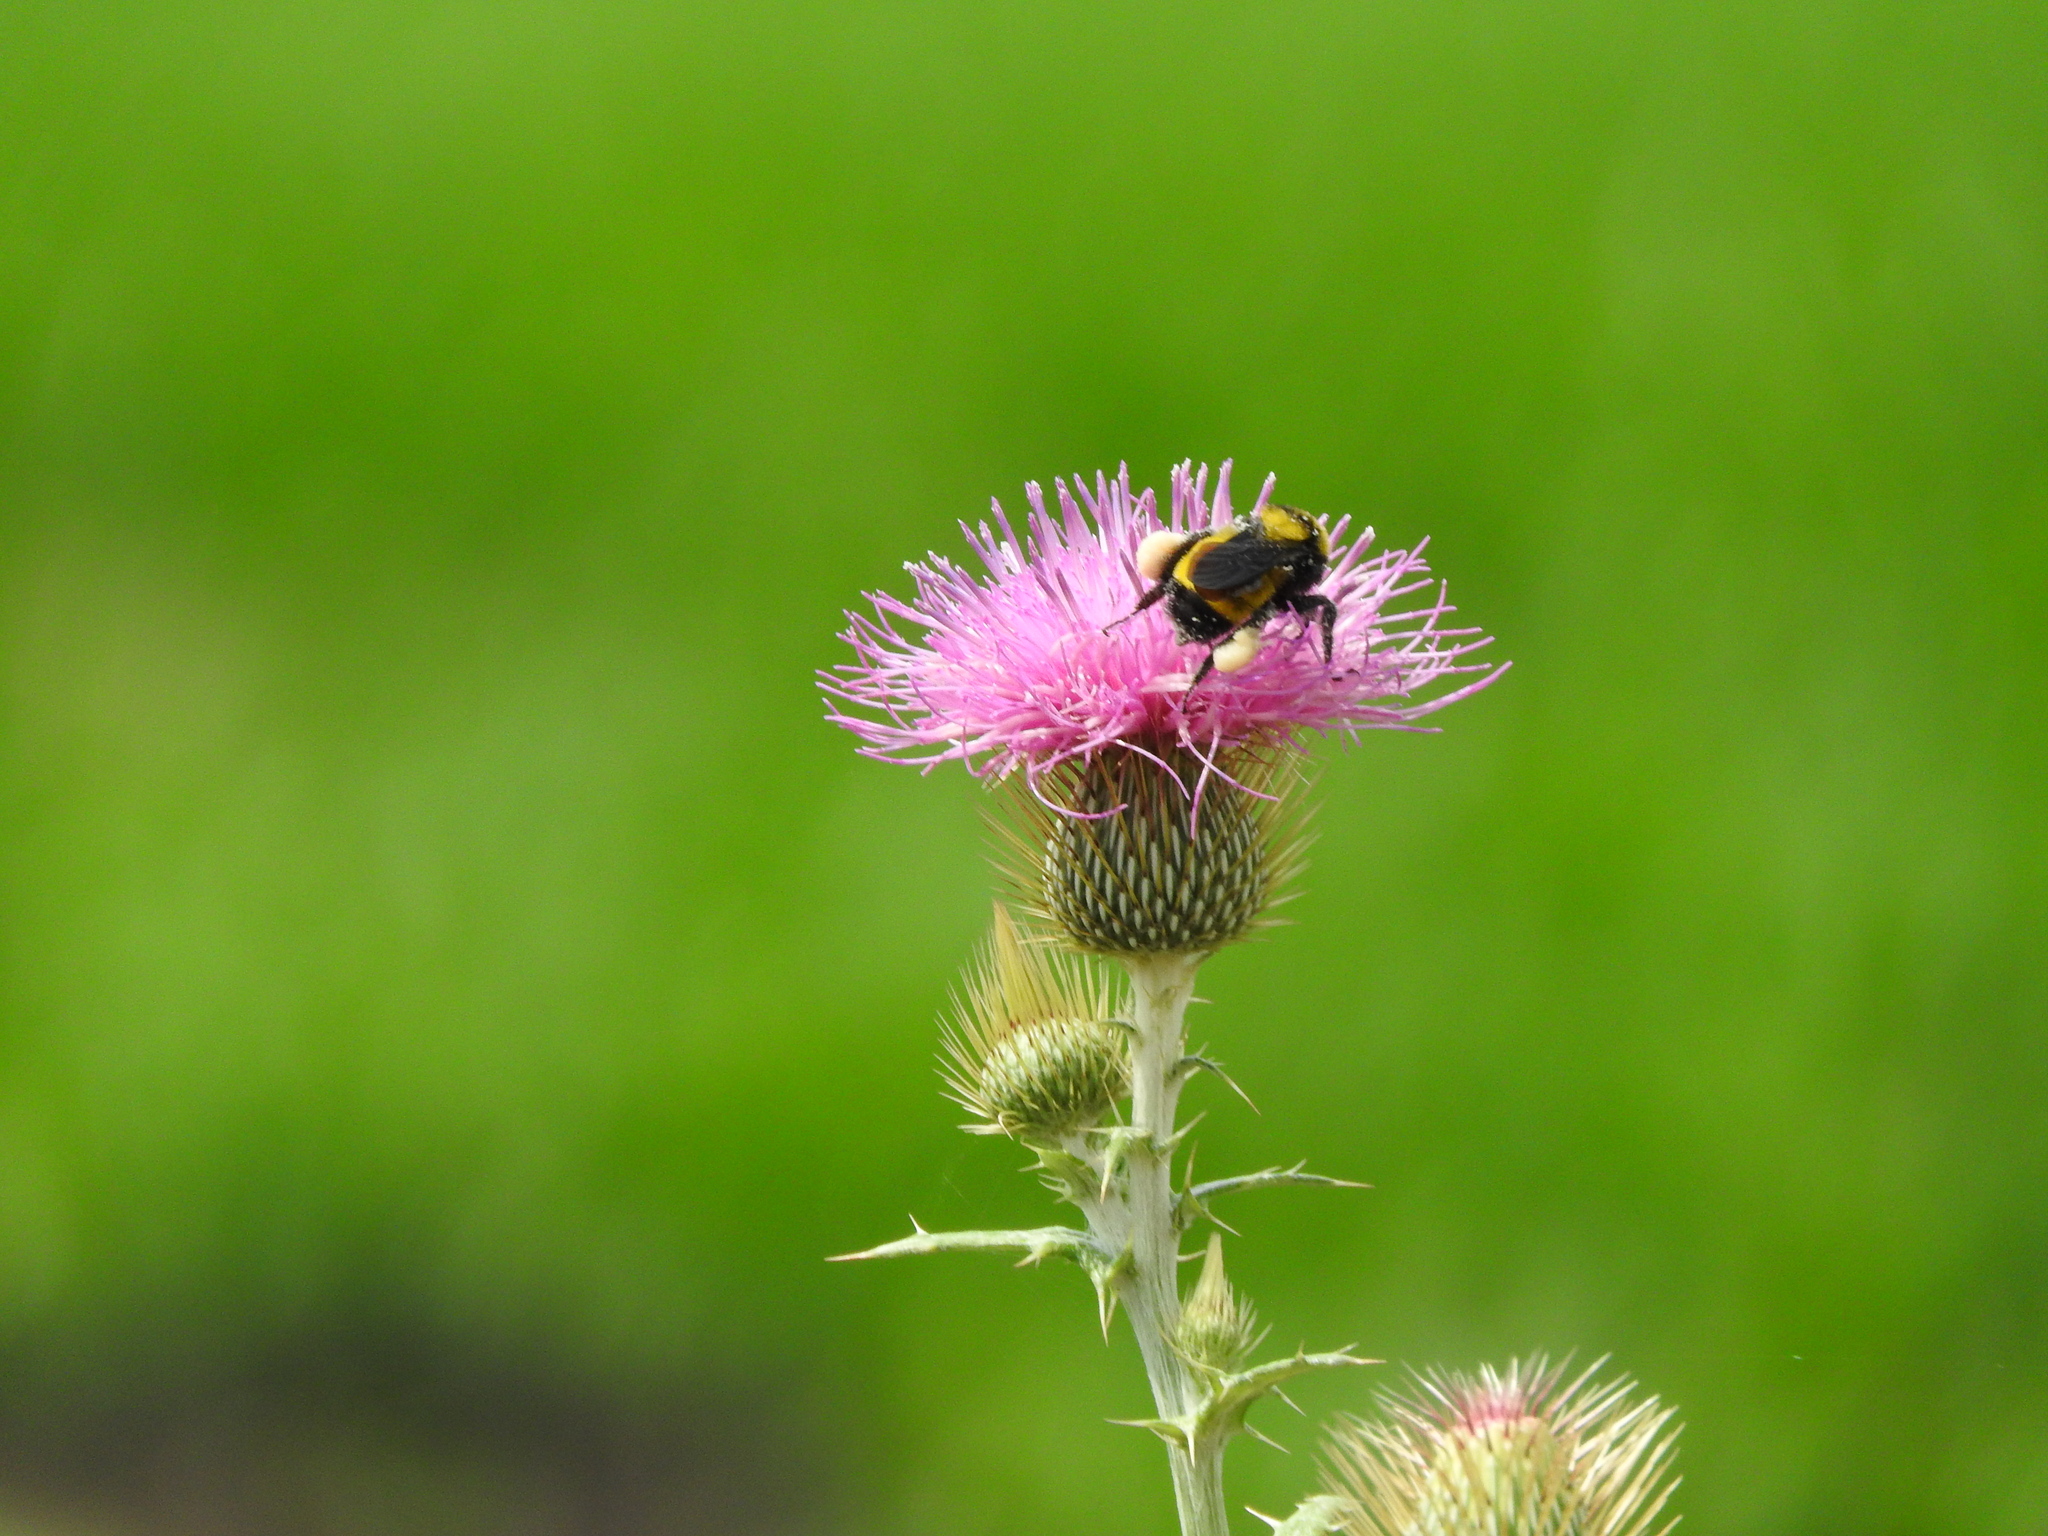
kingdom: Animalia
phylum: Arthropoda
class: Insecta
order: Hymenoptera
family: Apidae
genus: Bombus
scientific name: Bombus sonorus
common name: Sonoran bumble bee
